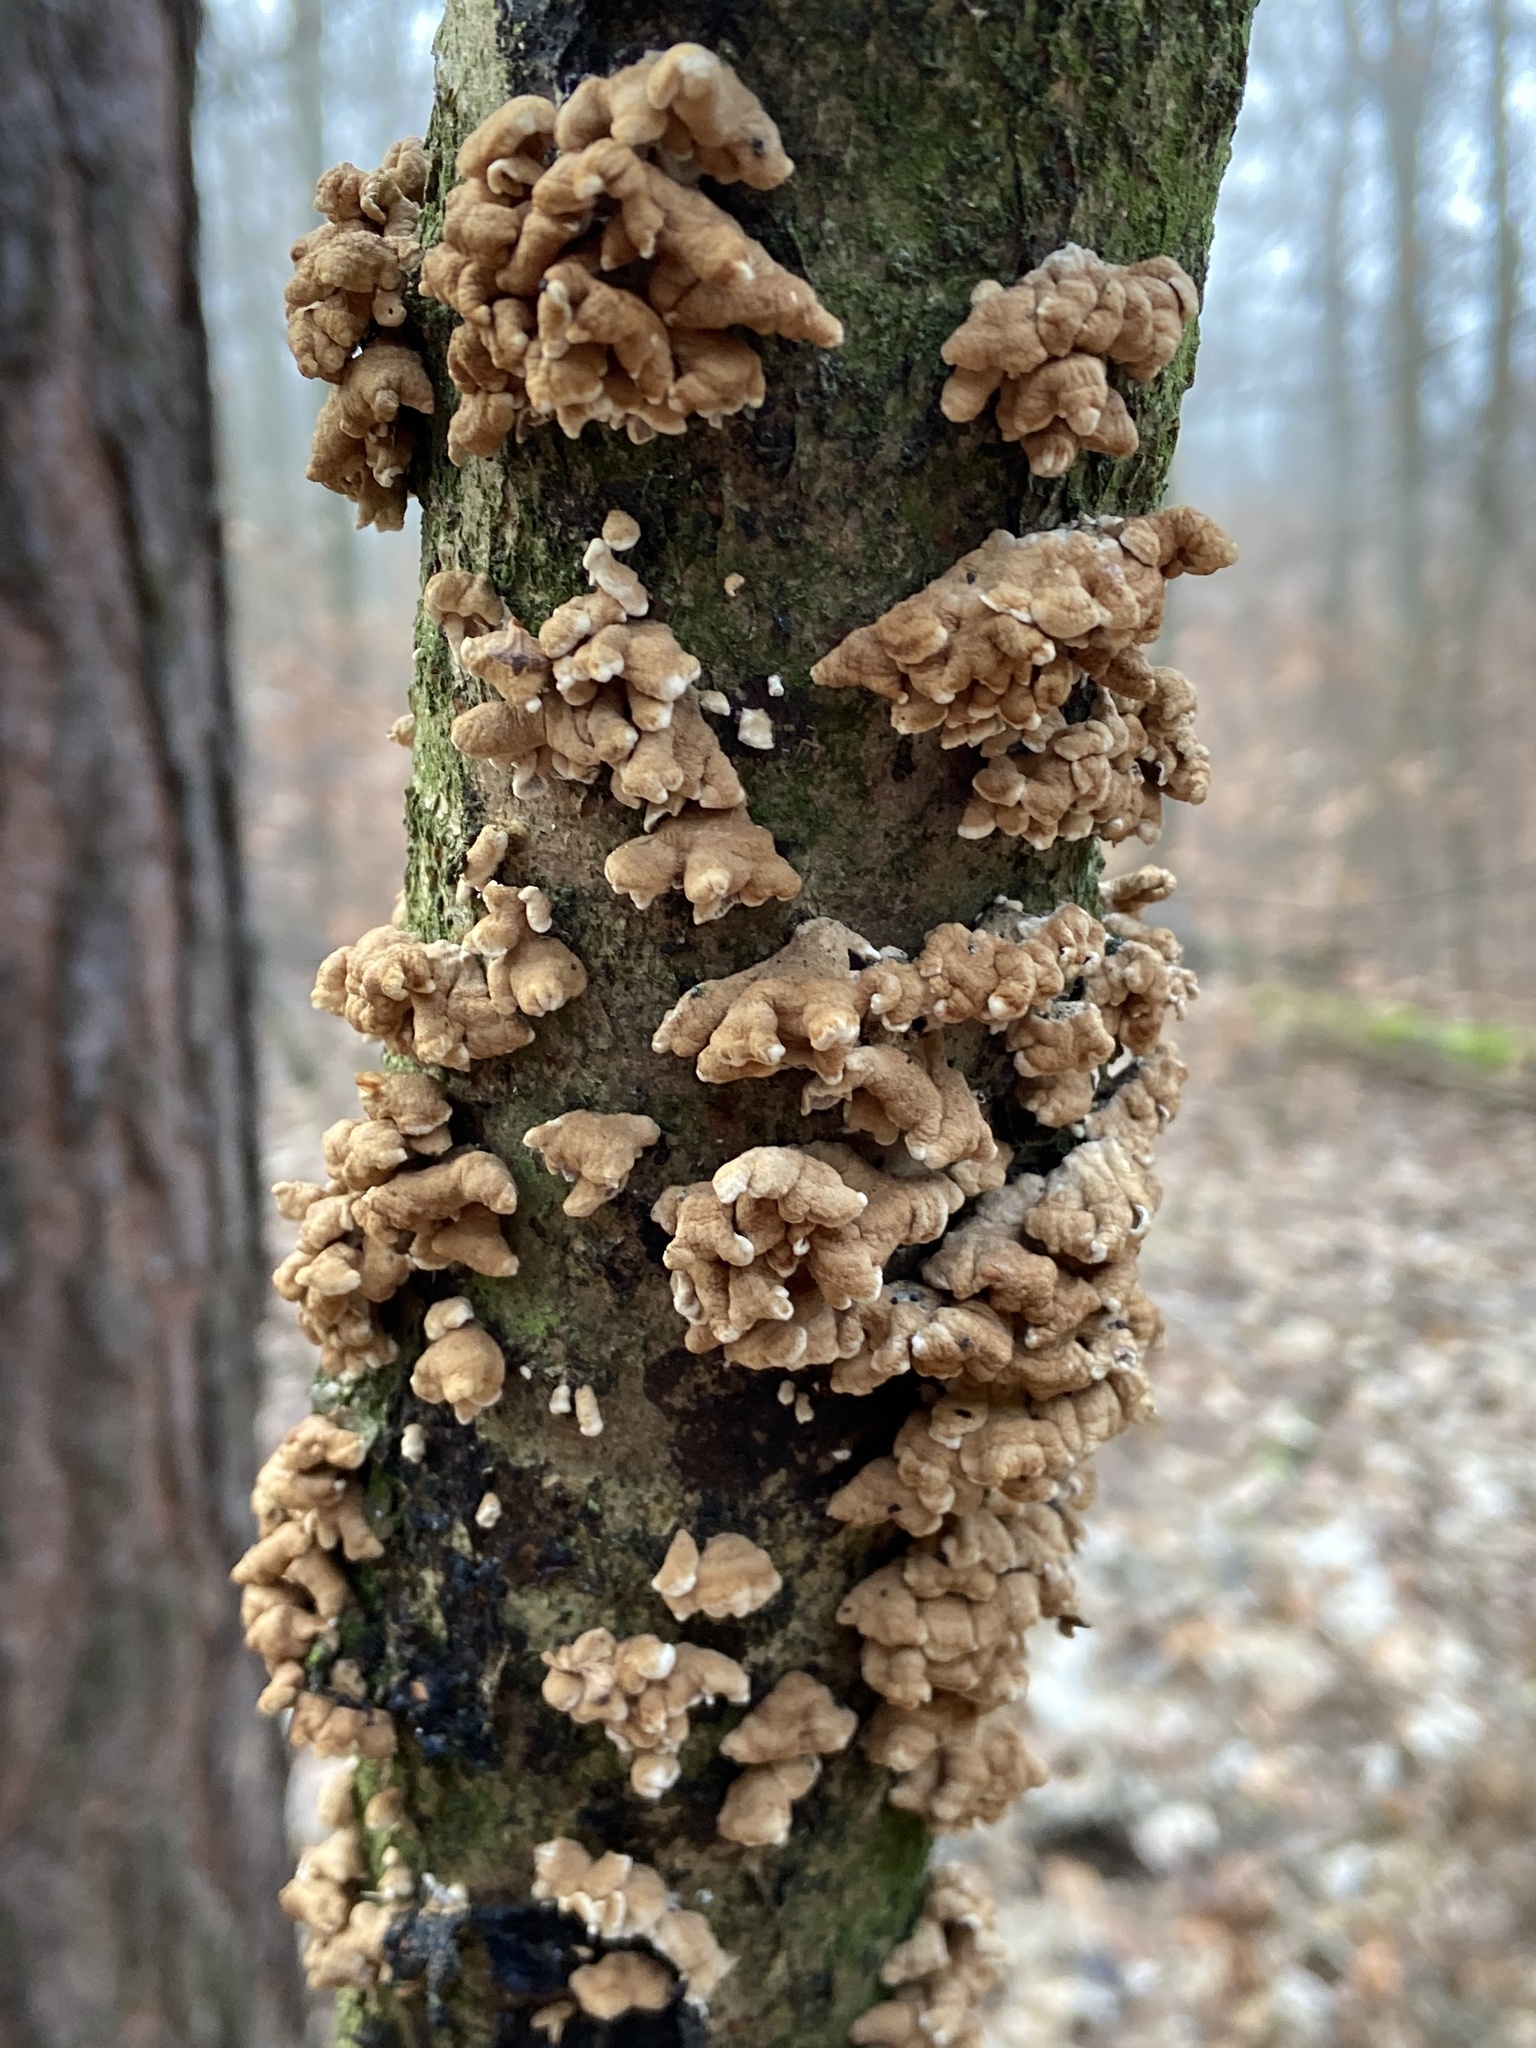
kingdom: Fungi
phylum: Basidiomycota
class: Agaricomycetes
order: Amylocorticiales
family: Amylocorticiaceae
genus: Plicaturopsis
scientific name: Plicaturopsis crispa
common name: Crimped gill
